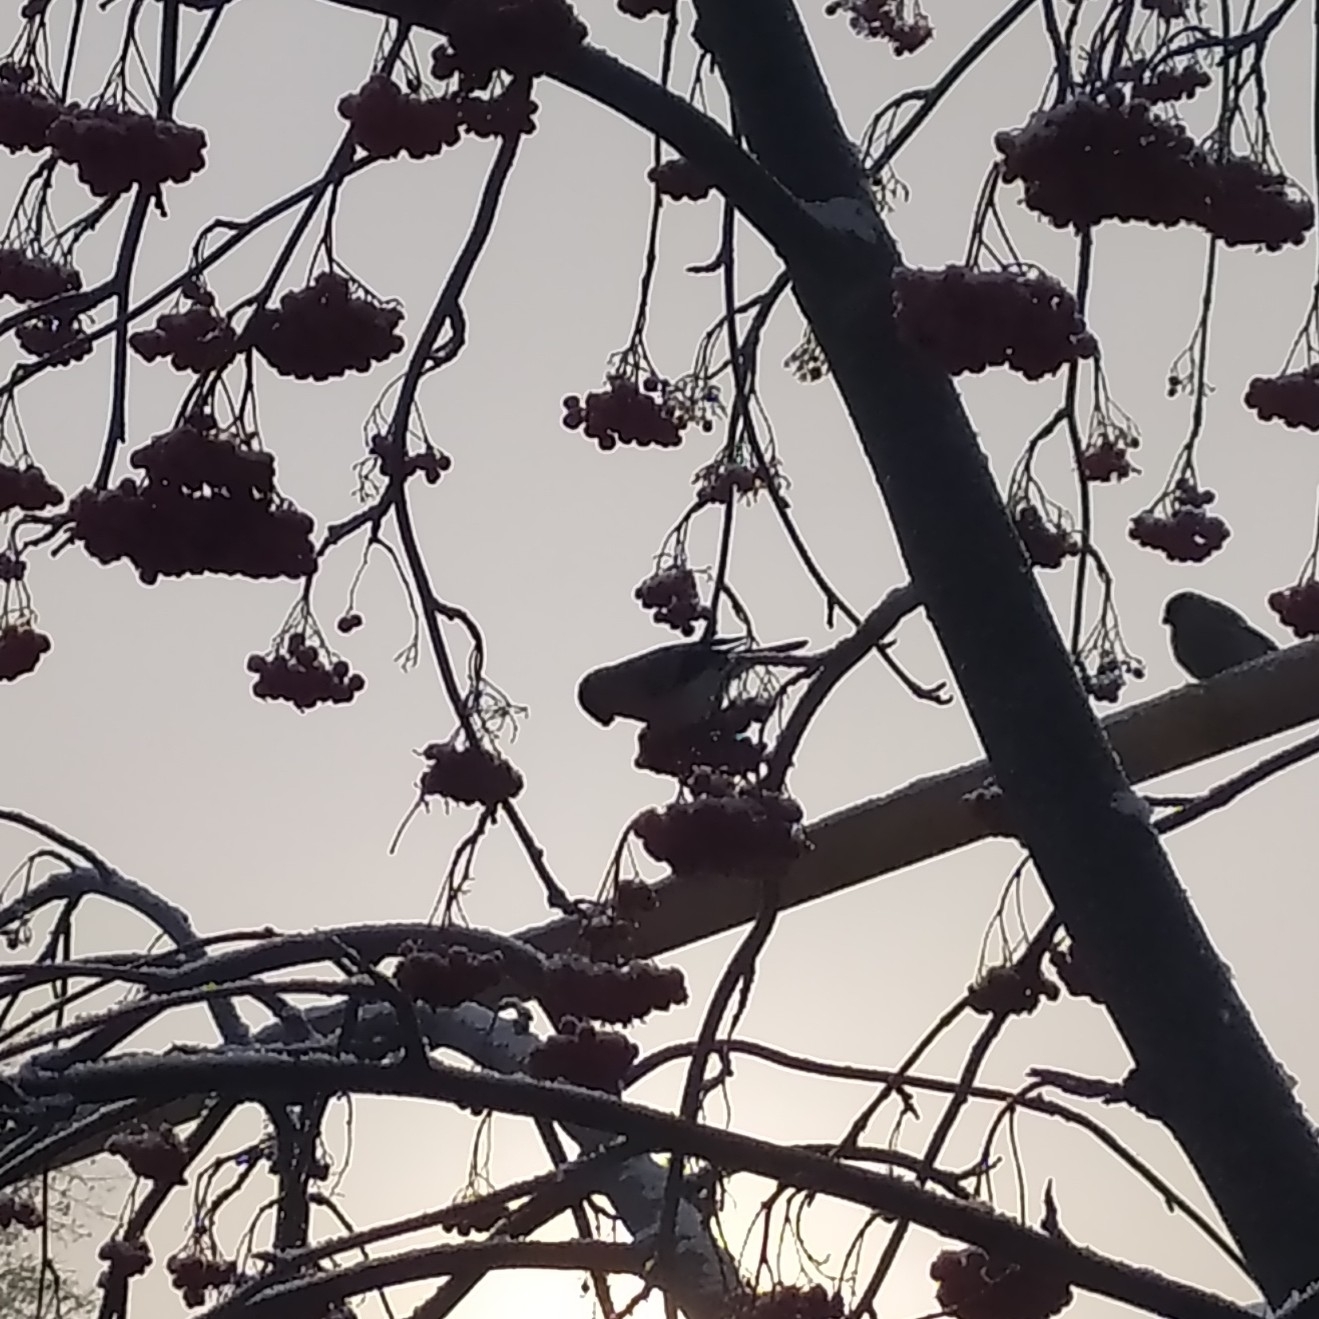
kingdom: Animalia
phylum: Chordata
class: Aves
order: Passeriformes
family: Fringillidae
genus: Pyrrhula
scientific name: Pyrrhula pyrrhula
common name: Eurasian bullfinch
